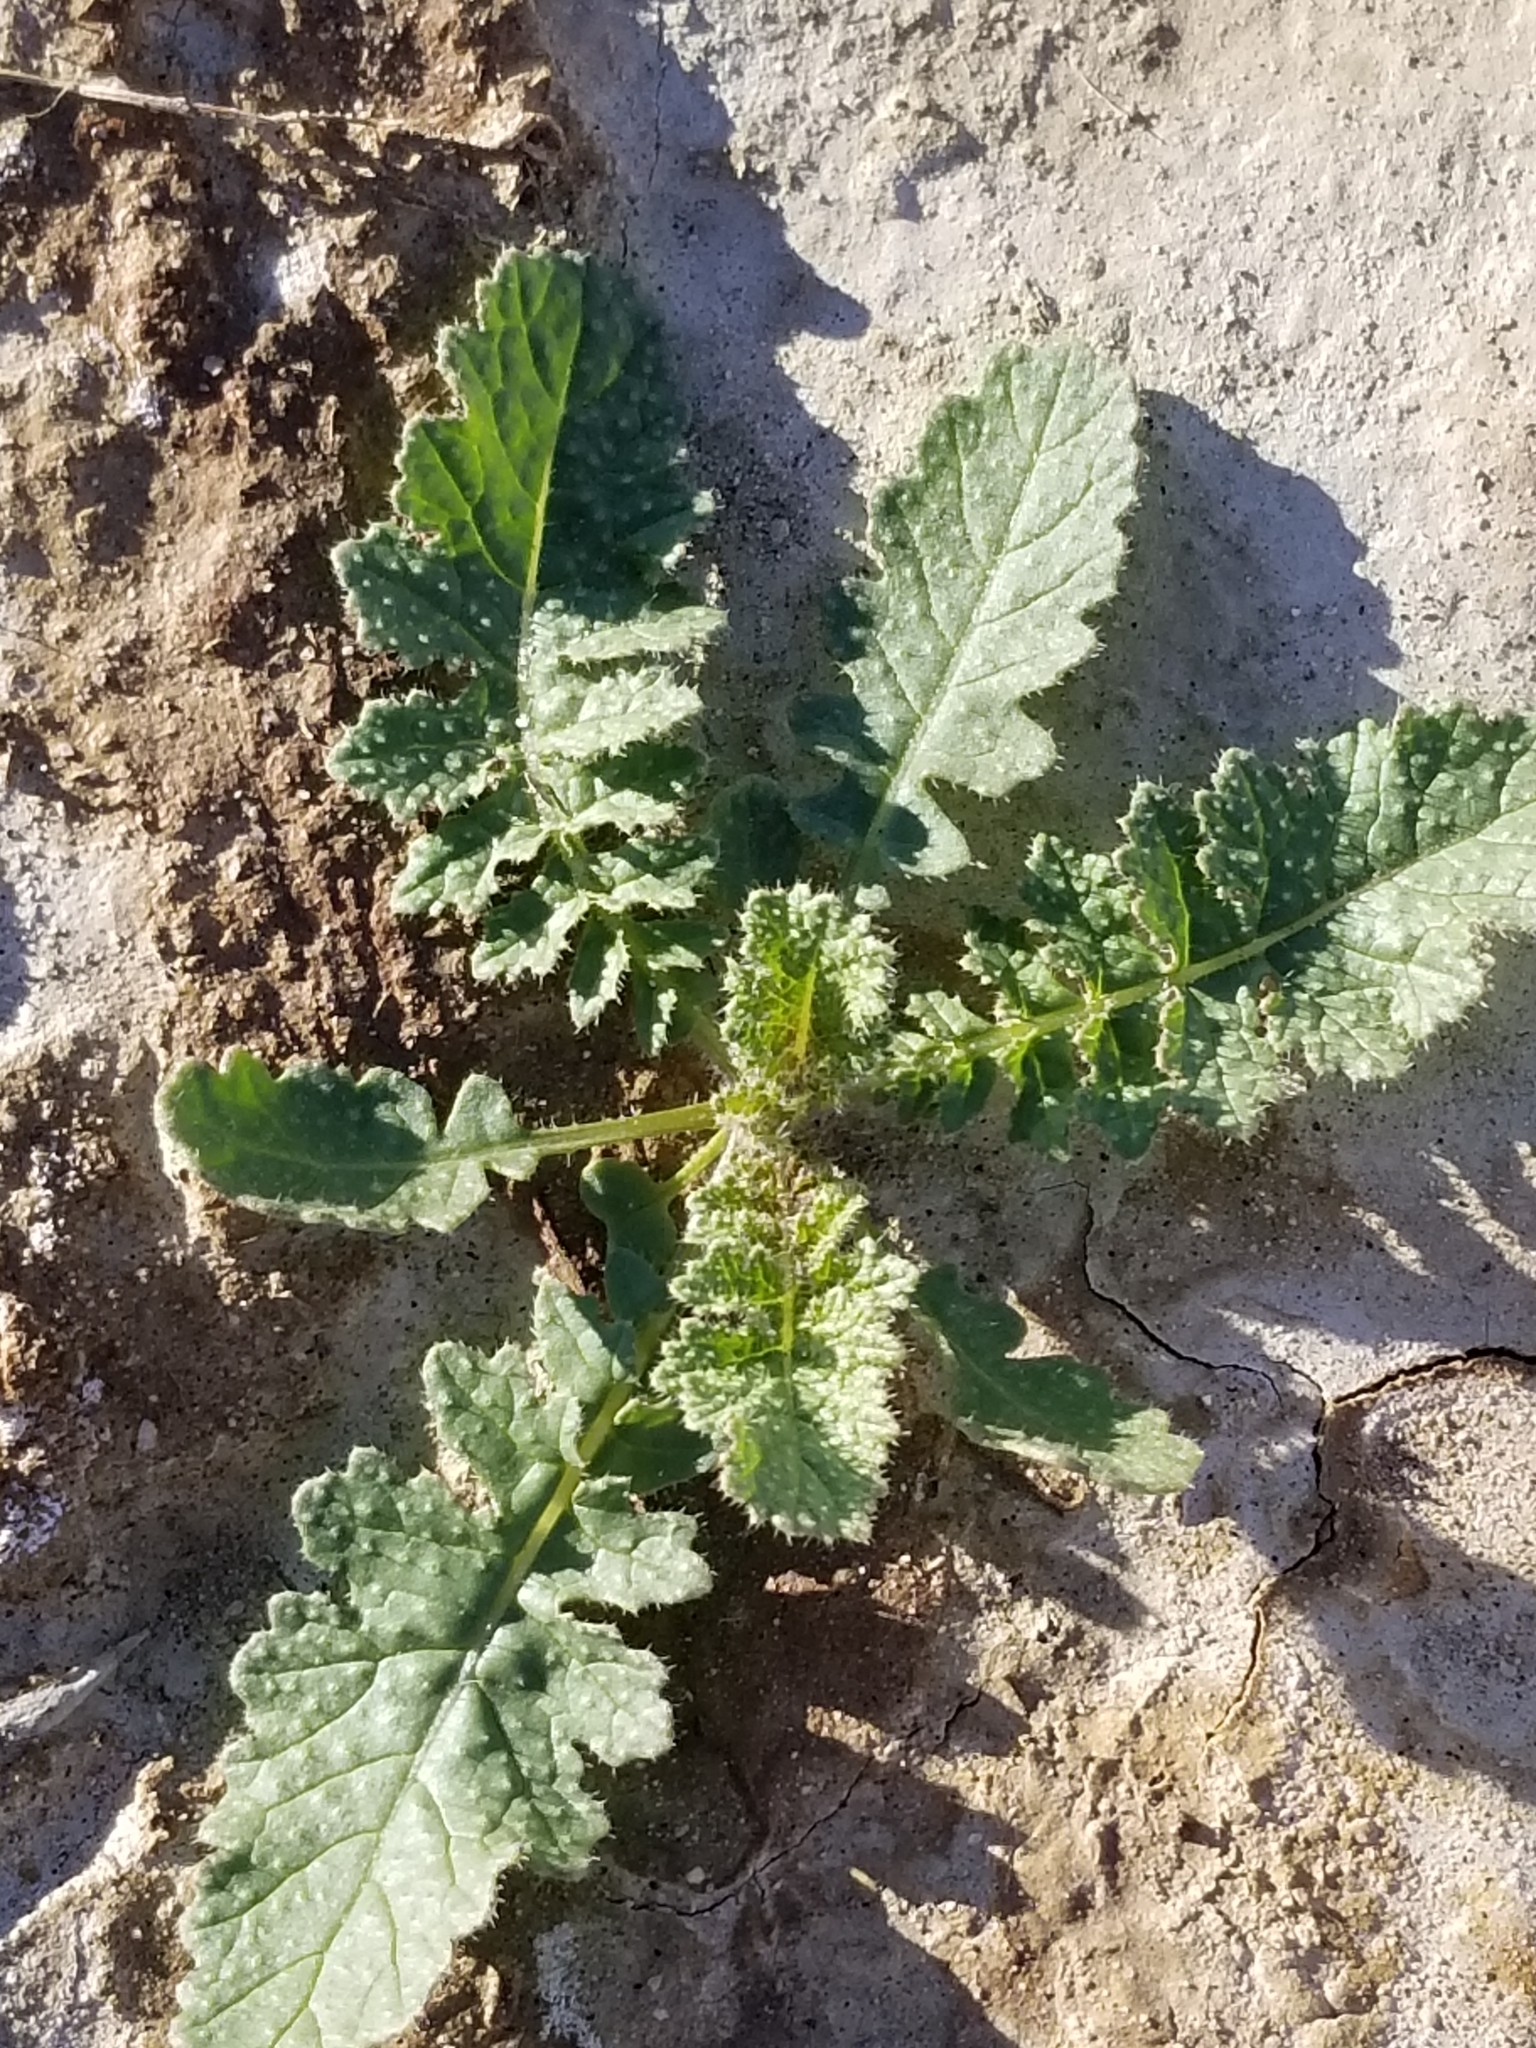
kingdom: Plantae
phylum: Tracheophyta
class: Magnoliopsida
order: Brassicales
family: Brassicaceae
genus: Brassica
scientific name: Brassica tournefortii
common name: Pale cabbage
